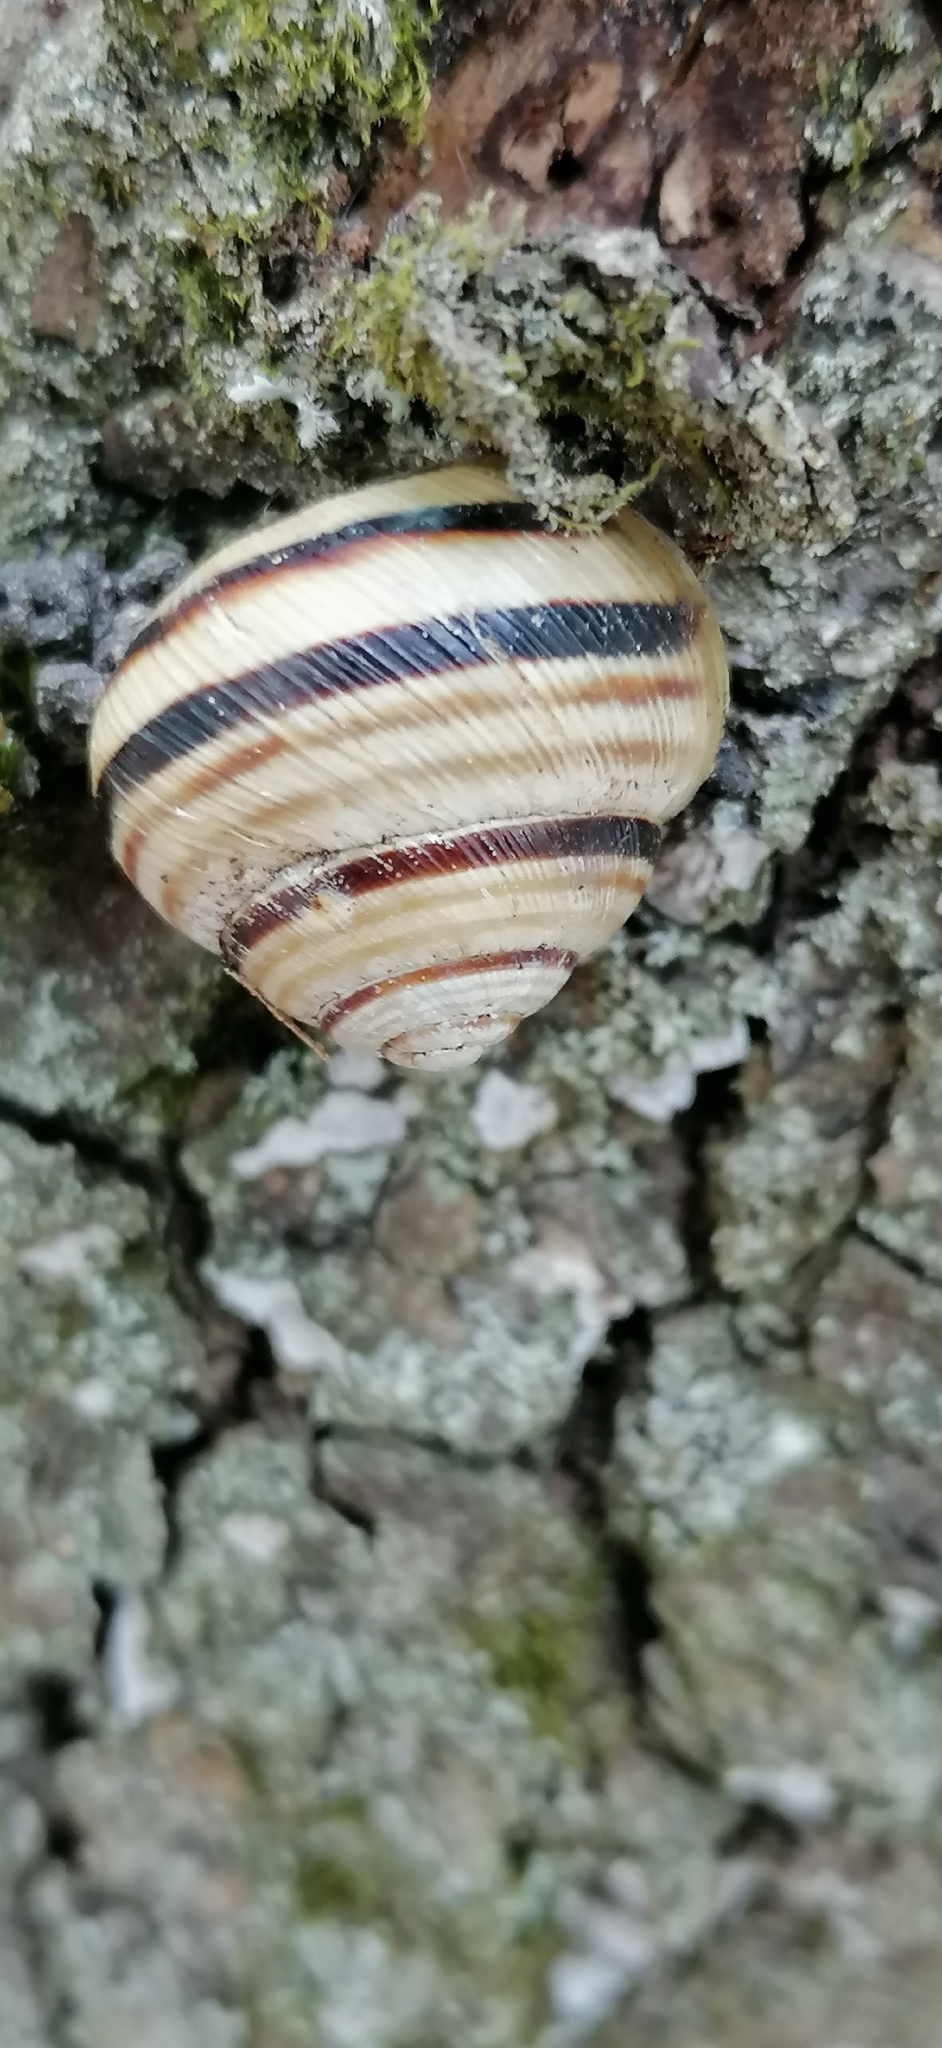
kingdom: Animalia
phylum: Mollusca
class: Gastropoda
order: Stylommatophora
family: Helicidae
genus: Caucasotachea
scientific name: Caucasotachea vindobonensis
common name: European helicid land snail
